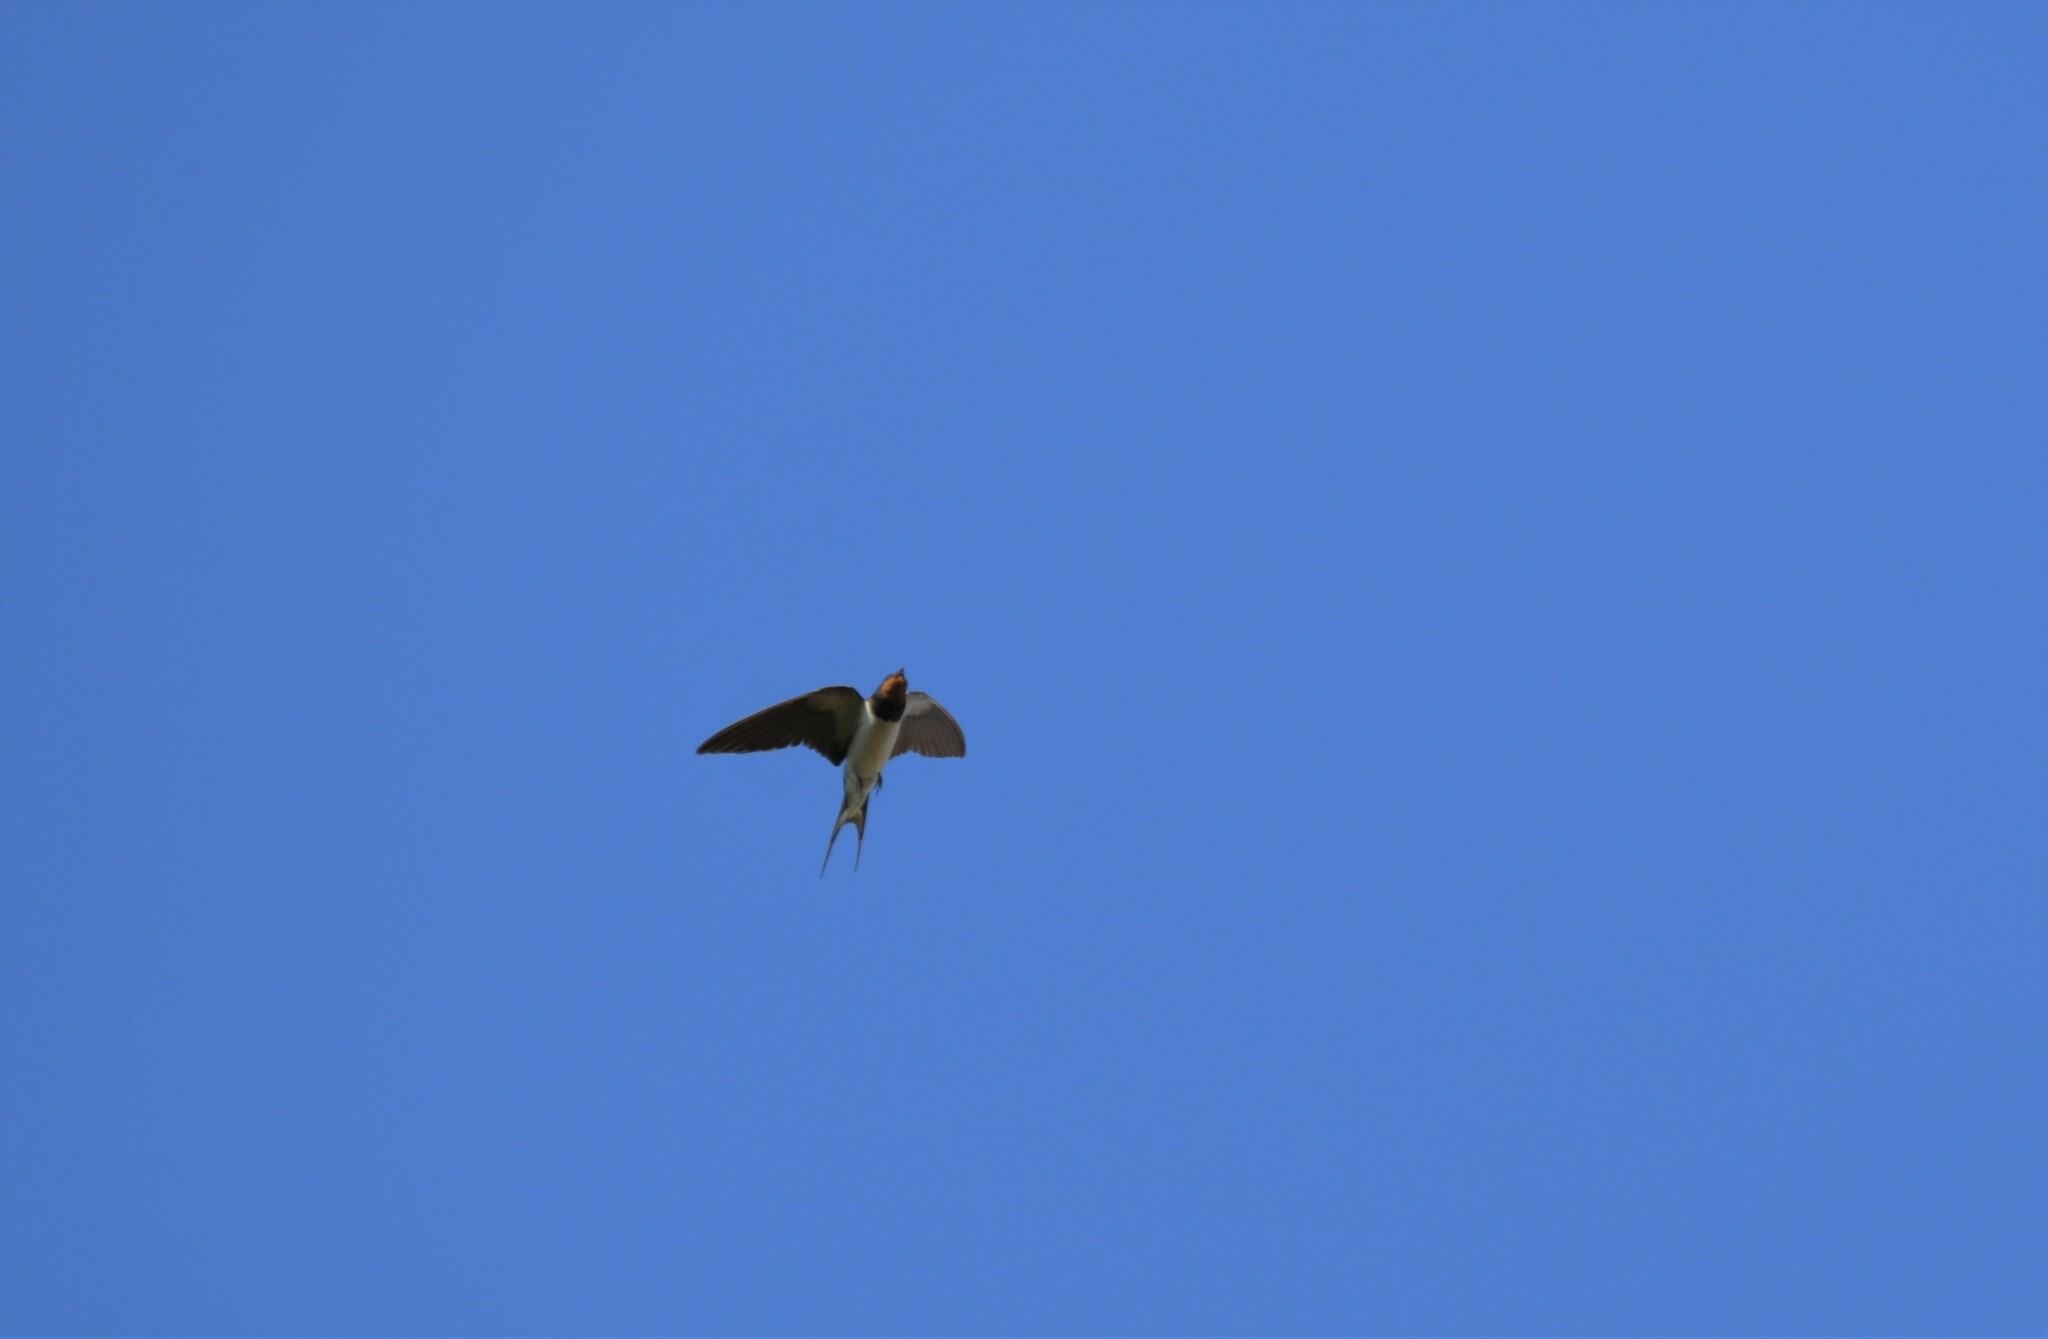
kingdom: Animalia
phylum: Chordata
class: Aves
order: Passeriformes
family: Hirundinidae
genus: Hirundo
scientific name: Hirundo rustica
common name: Barn swallow
